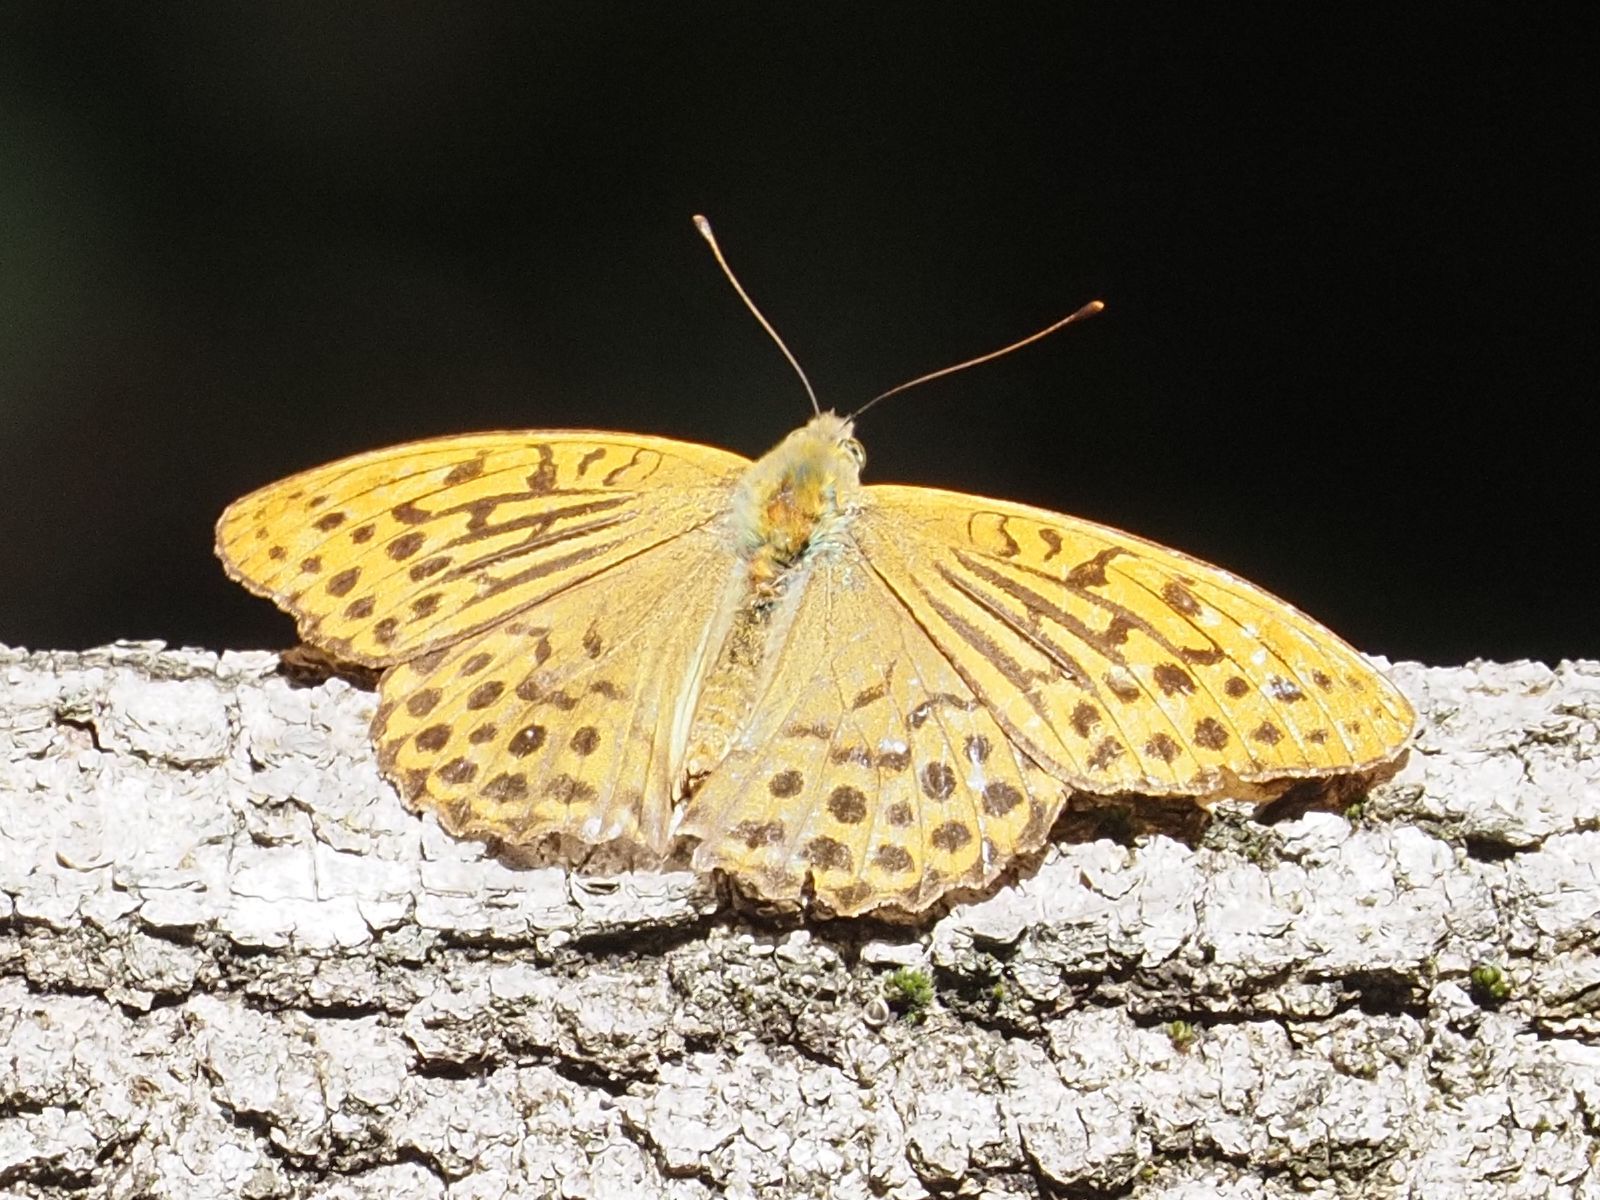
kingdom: Animalia
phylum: Arthropoda
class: Insecta
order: Lepidoptera
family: Nymphalidae
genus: Argynnis
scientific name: Argynnis paphia
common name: Silver-washed fritillary
